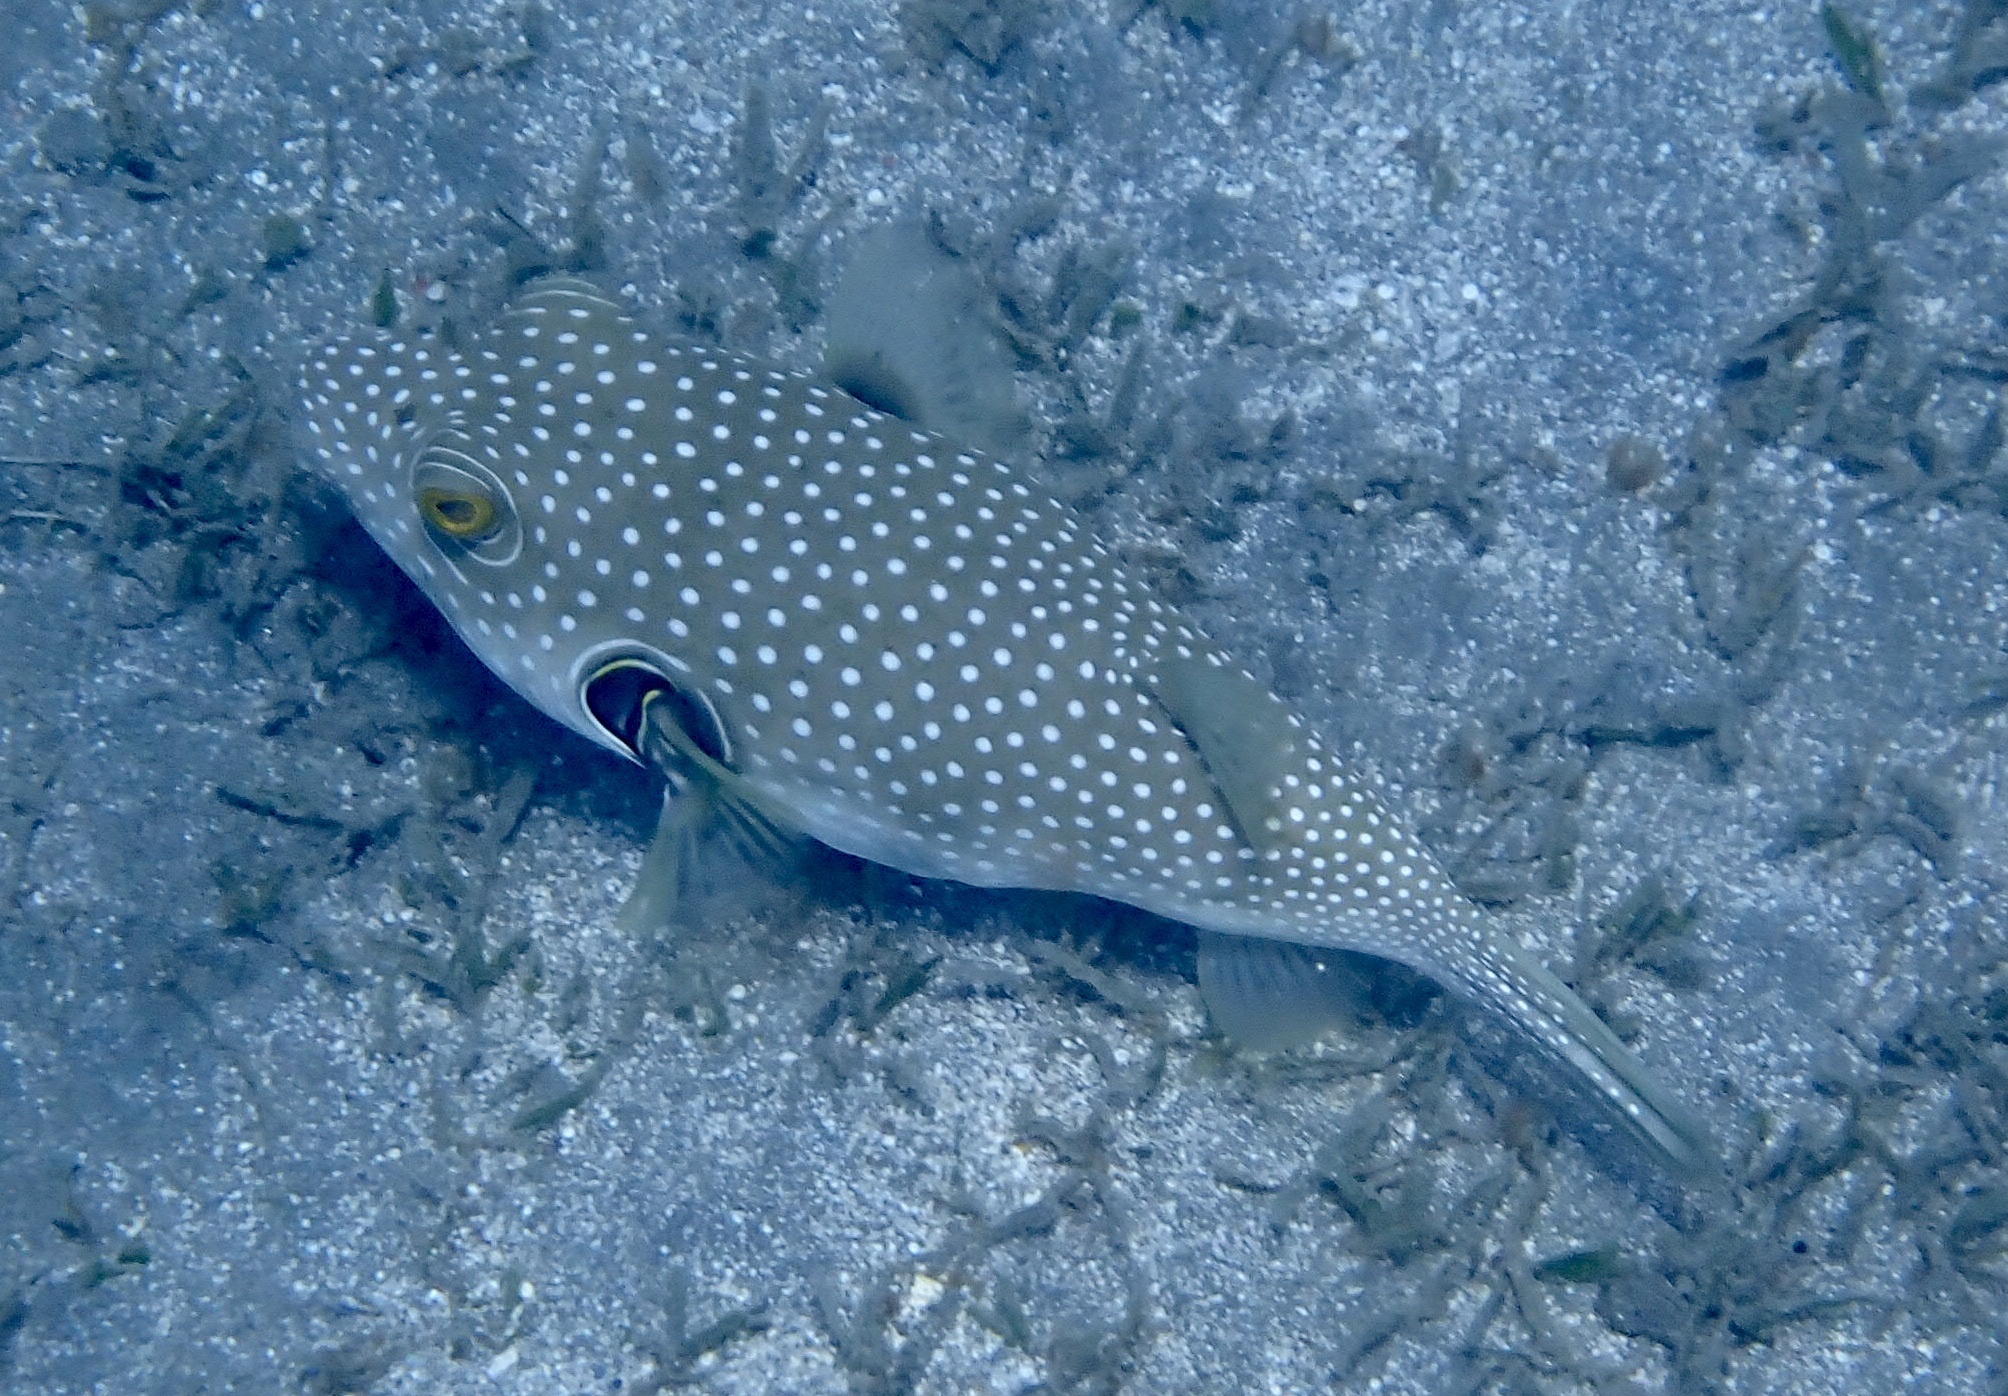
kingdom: Animalia
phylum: Chordata
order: Tetraodontiformes
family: Tetraodontidae
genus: Arothron
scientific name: Arothron hispidus
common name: Stripebelly puffer
